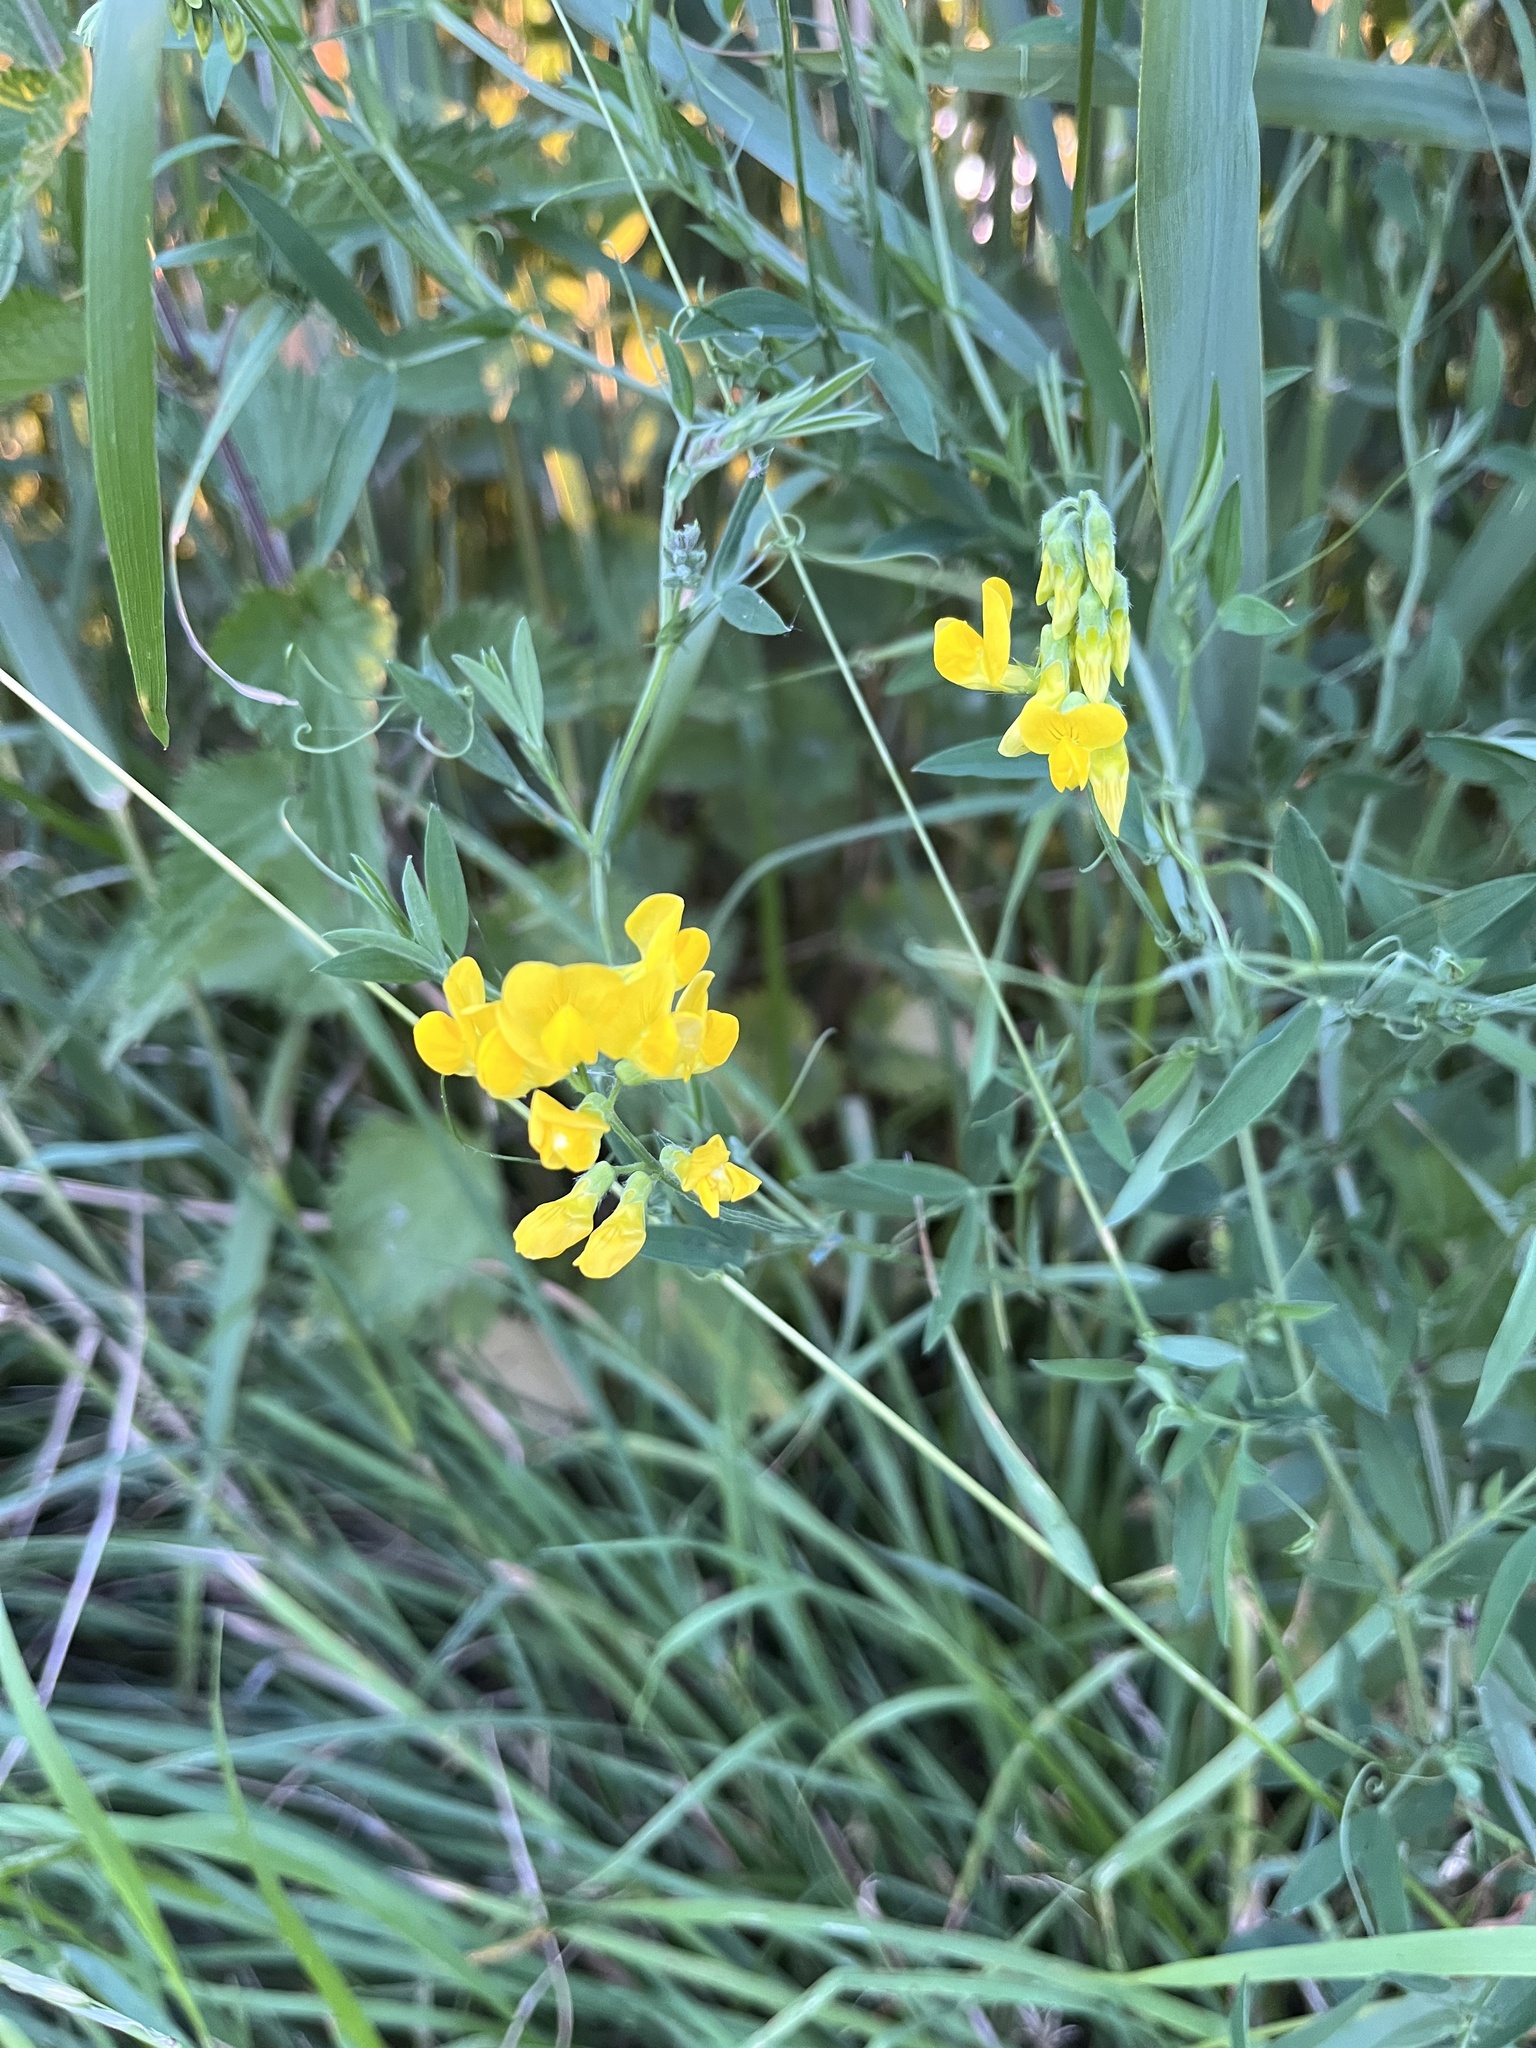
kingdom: Plantae
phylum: Tracheophyta
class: Magnoliopsida
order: Fabales
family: Fabaceae
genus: Lathyrus
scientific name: Lathyrus pratensis
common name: Meadow vetchling
